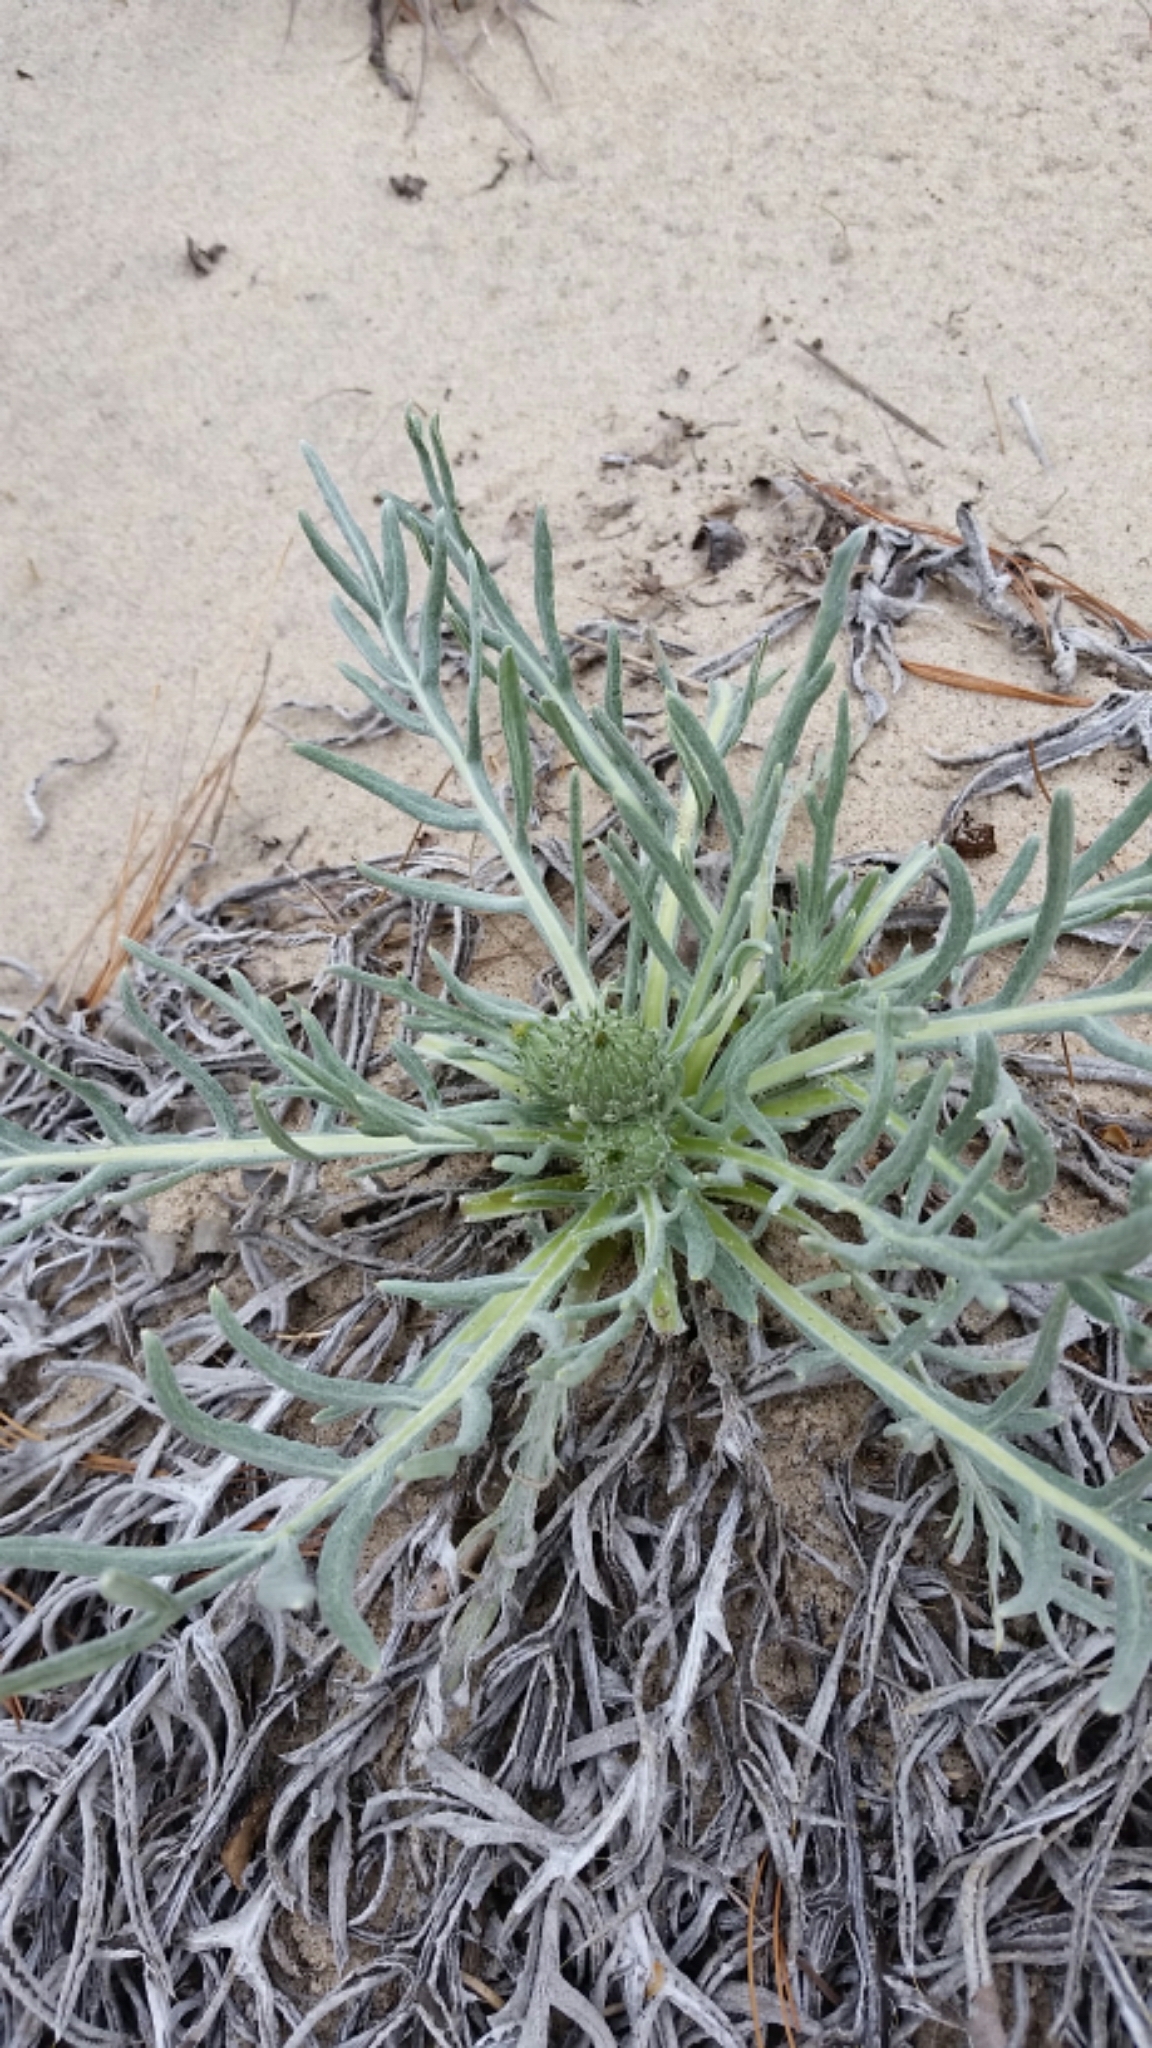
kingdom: Plantae
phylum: Tracheophyta
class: Magnoliopsida
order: Asterales
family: Asteraceae
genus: Cirsium
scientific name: Cirsium pitcheri
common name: Dune thistle
